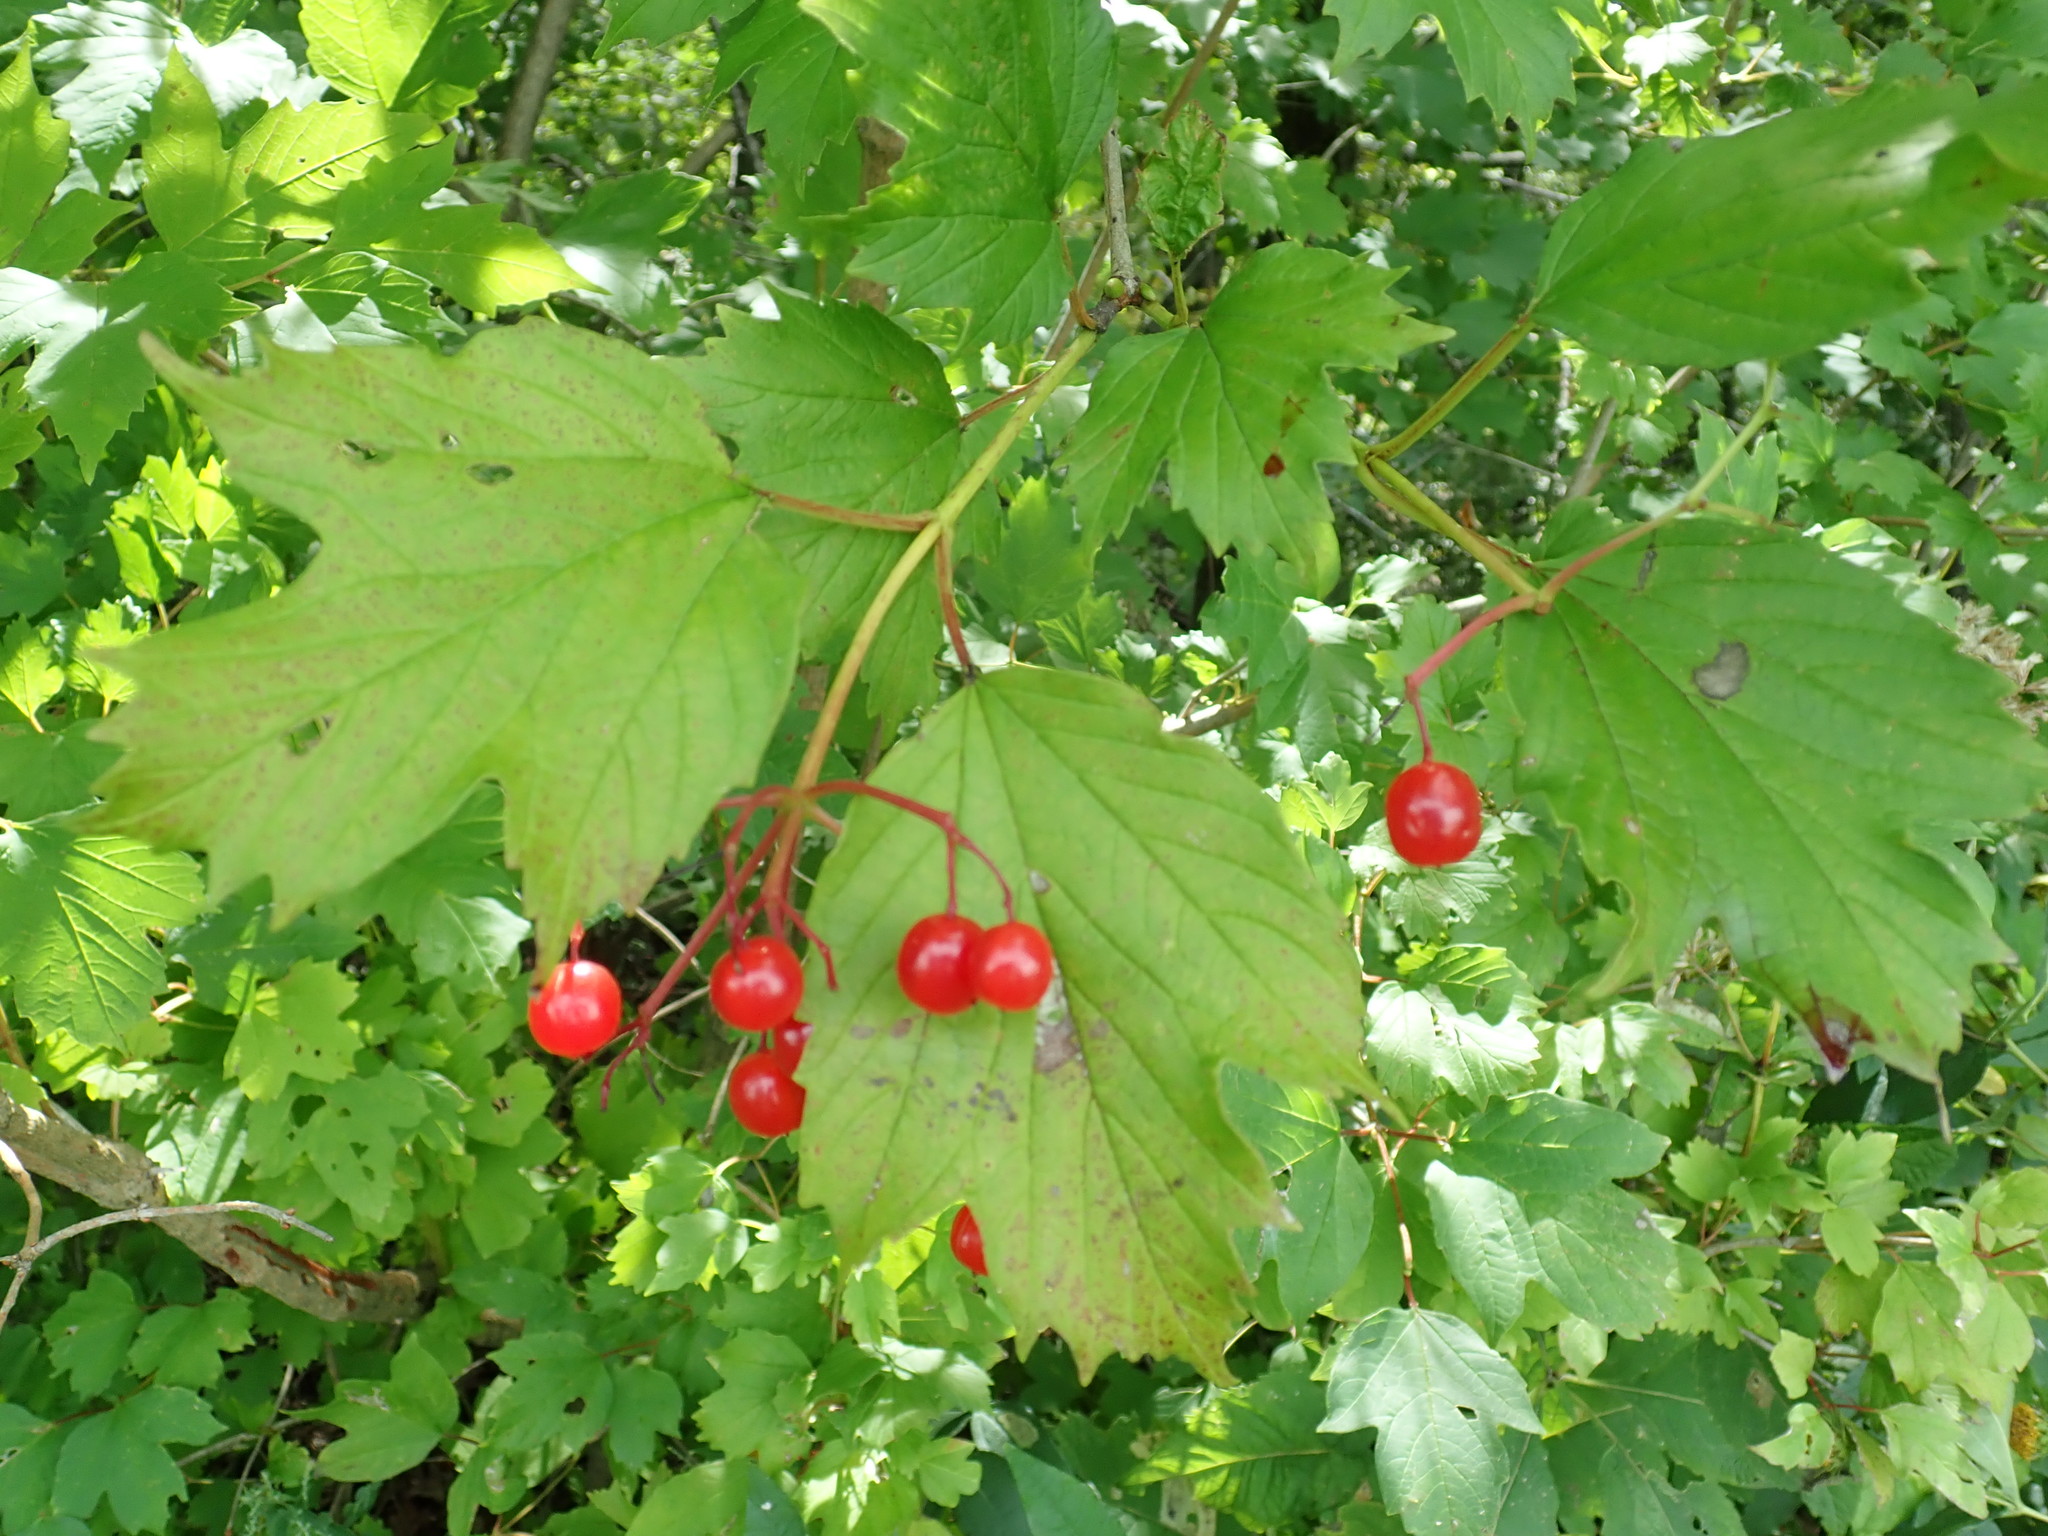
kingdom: Plantae
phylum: Tracheophyta
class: Magnoliopsida
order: Dipsacales
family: Viburnaceae
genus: Viburnum
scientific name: Viburnum opulus
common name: Guelder-rose
